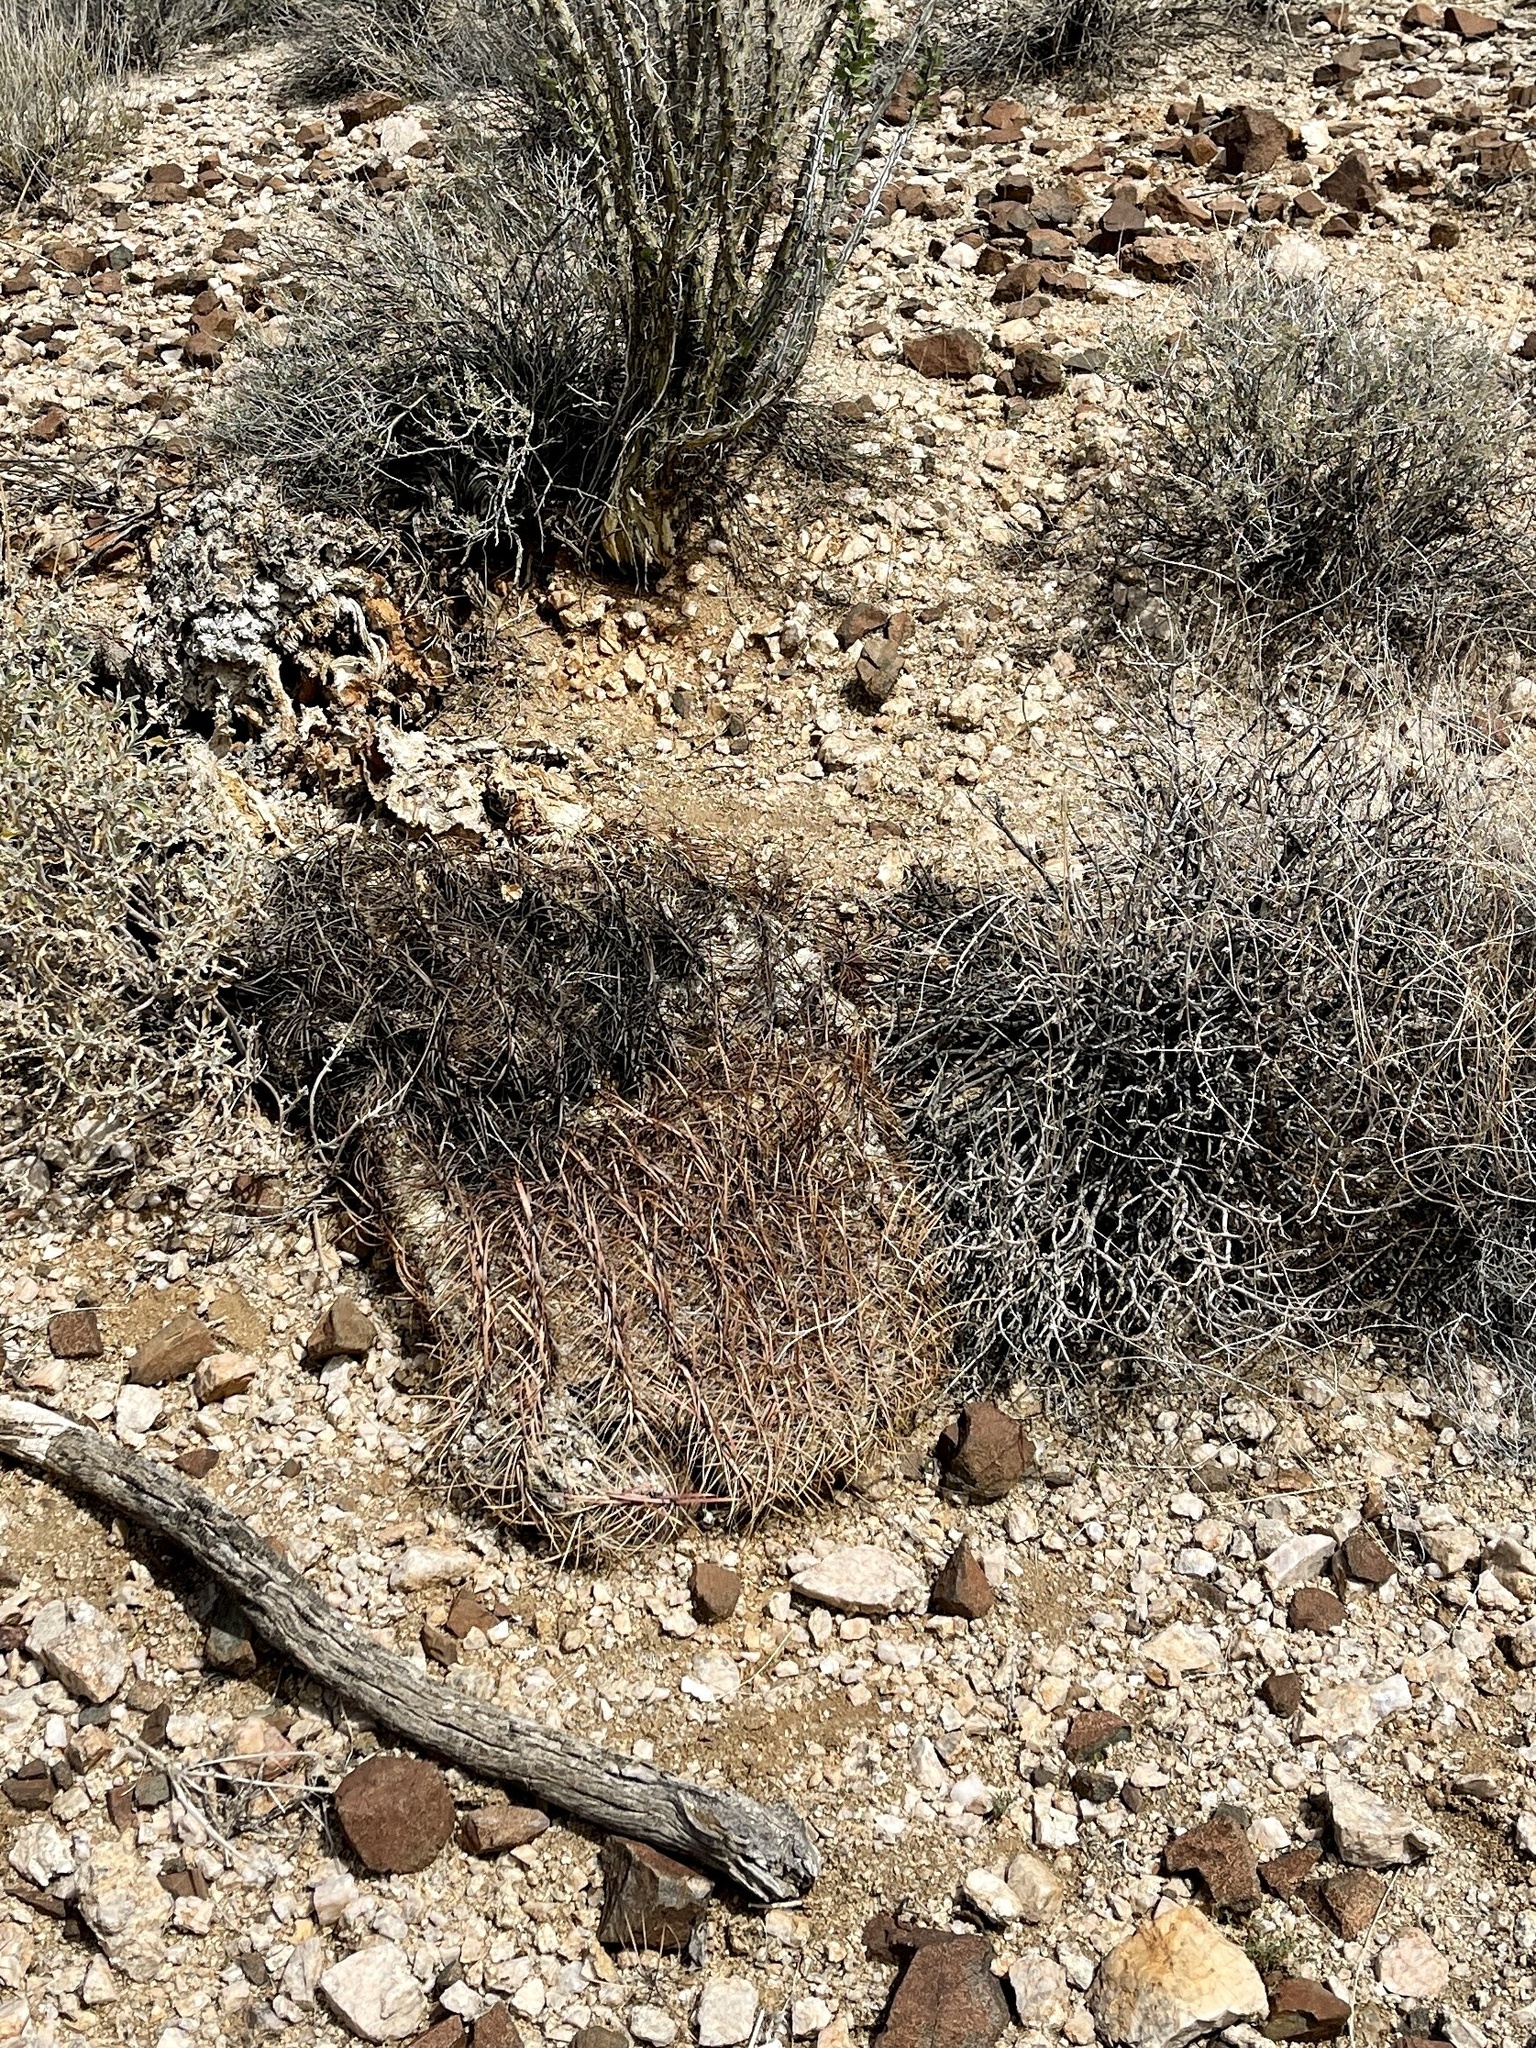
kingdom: Plantae
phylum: Tracheophyta
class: Magnoliopsida
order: Caryophyllales
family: Cactaceae
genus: Ferocactus
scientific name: Ferocactus cylindraceus
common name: California barrel cactus
